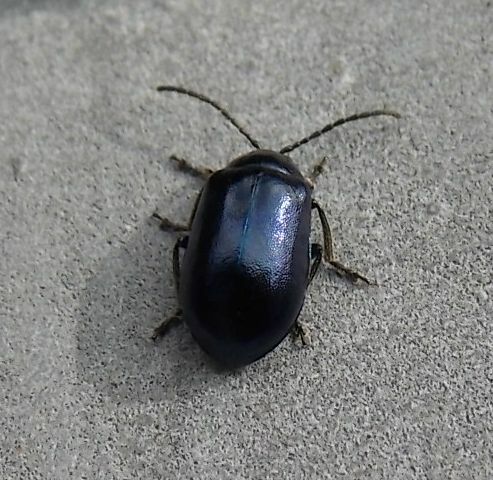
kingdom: Animalia
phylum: Arthropoda
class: Insecta
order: Coleoptera
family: Chrysomelidae
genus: Agelastica
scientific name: Agelastica alni
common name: Alder leaf beetle
